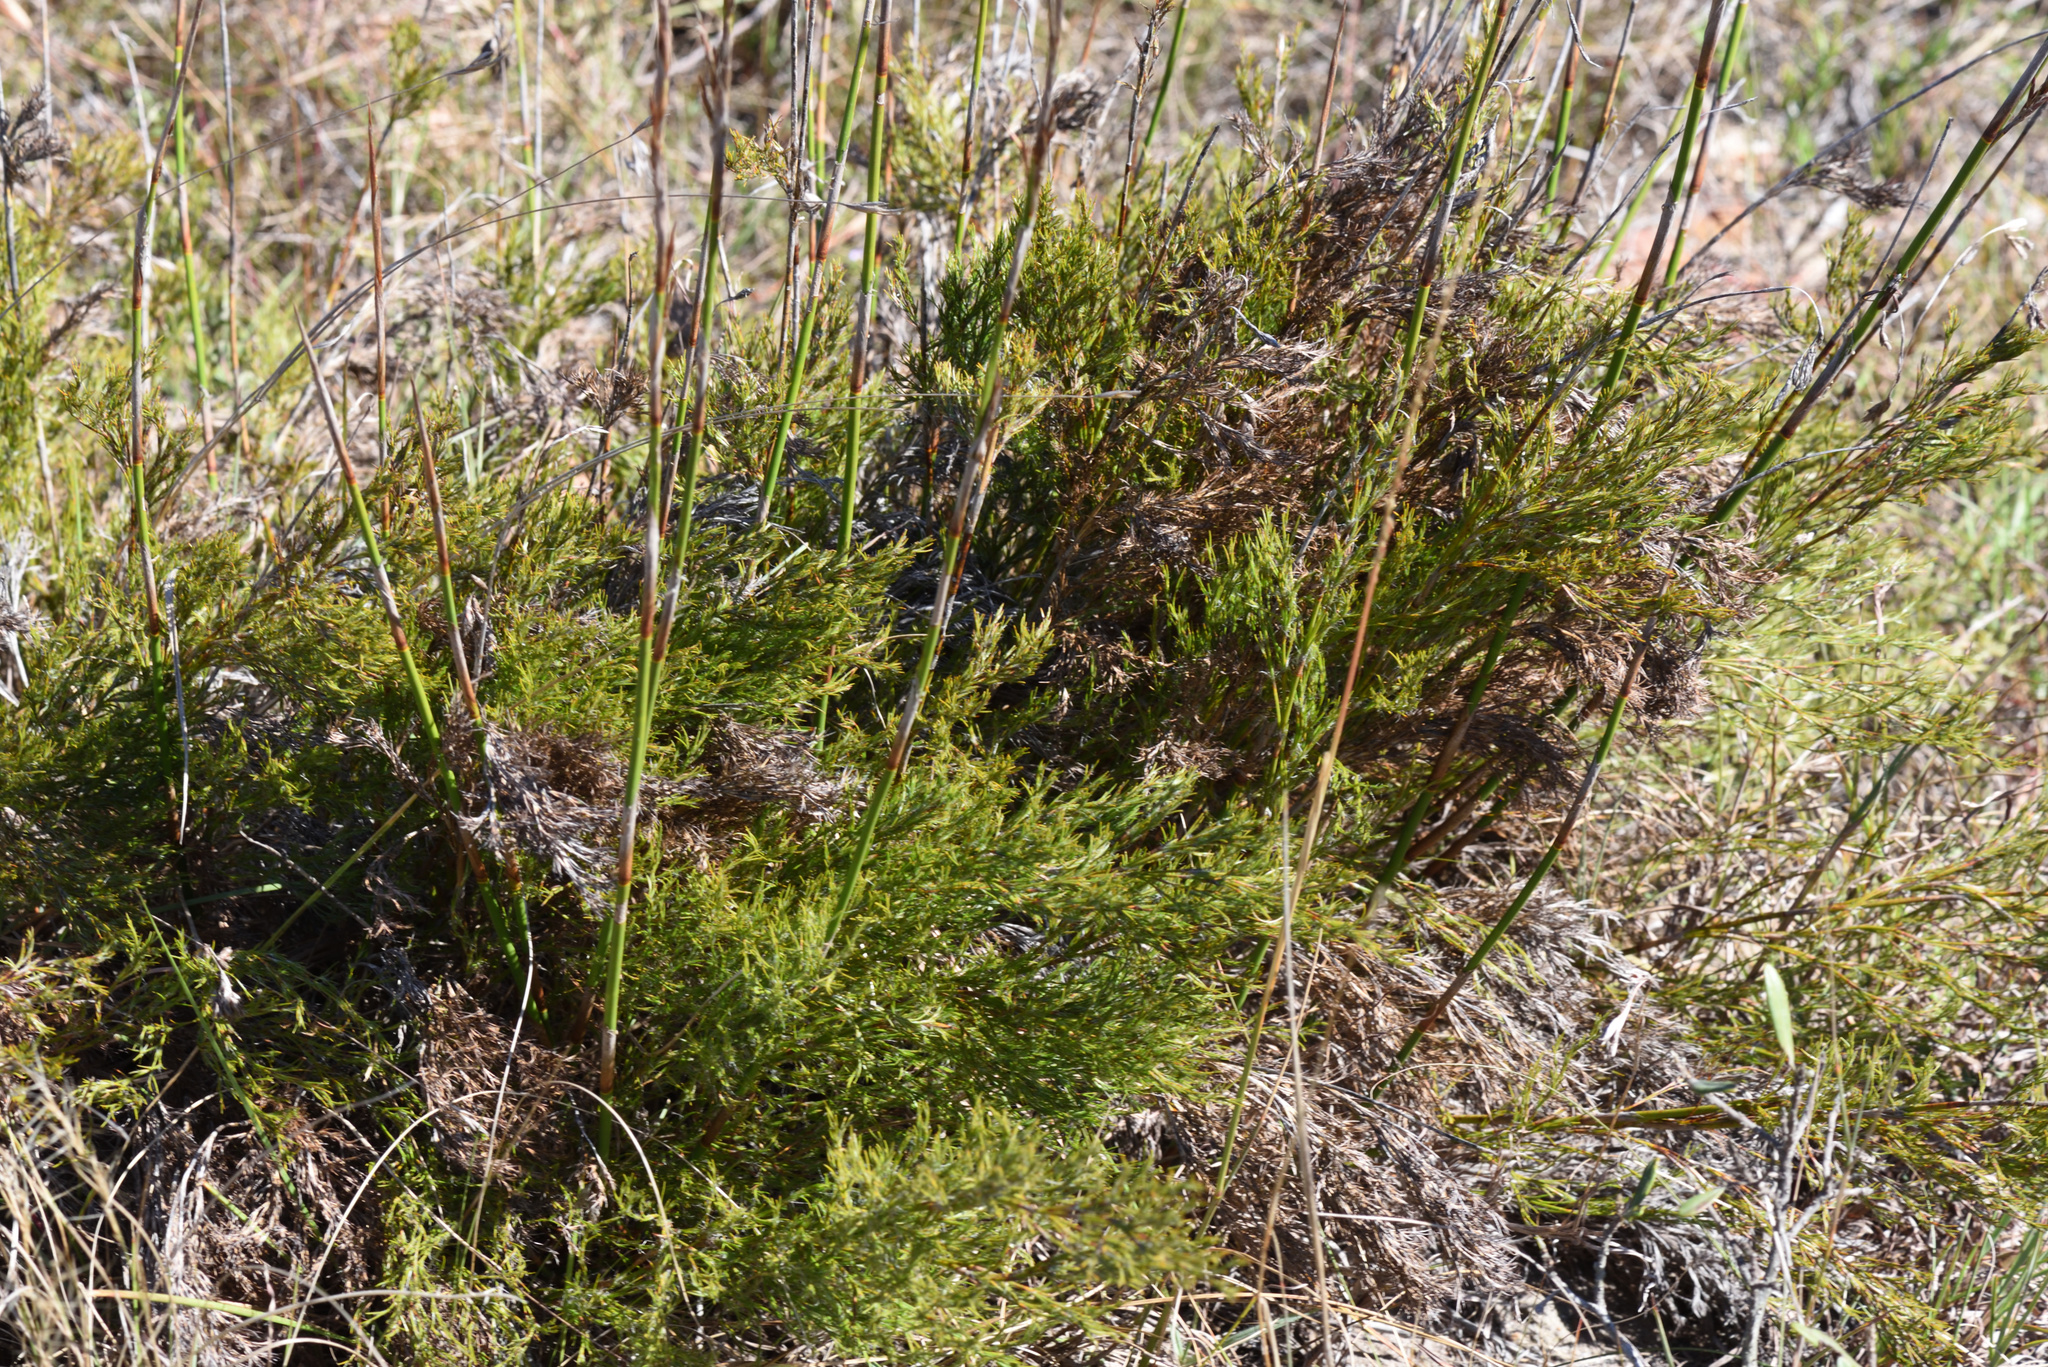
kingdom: Plantae
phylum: Tracheophyta
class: Liliopsida
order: Poales
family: Restionaceae
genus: Thamnochortus
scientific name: Thamnochortus glaber
